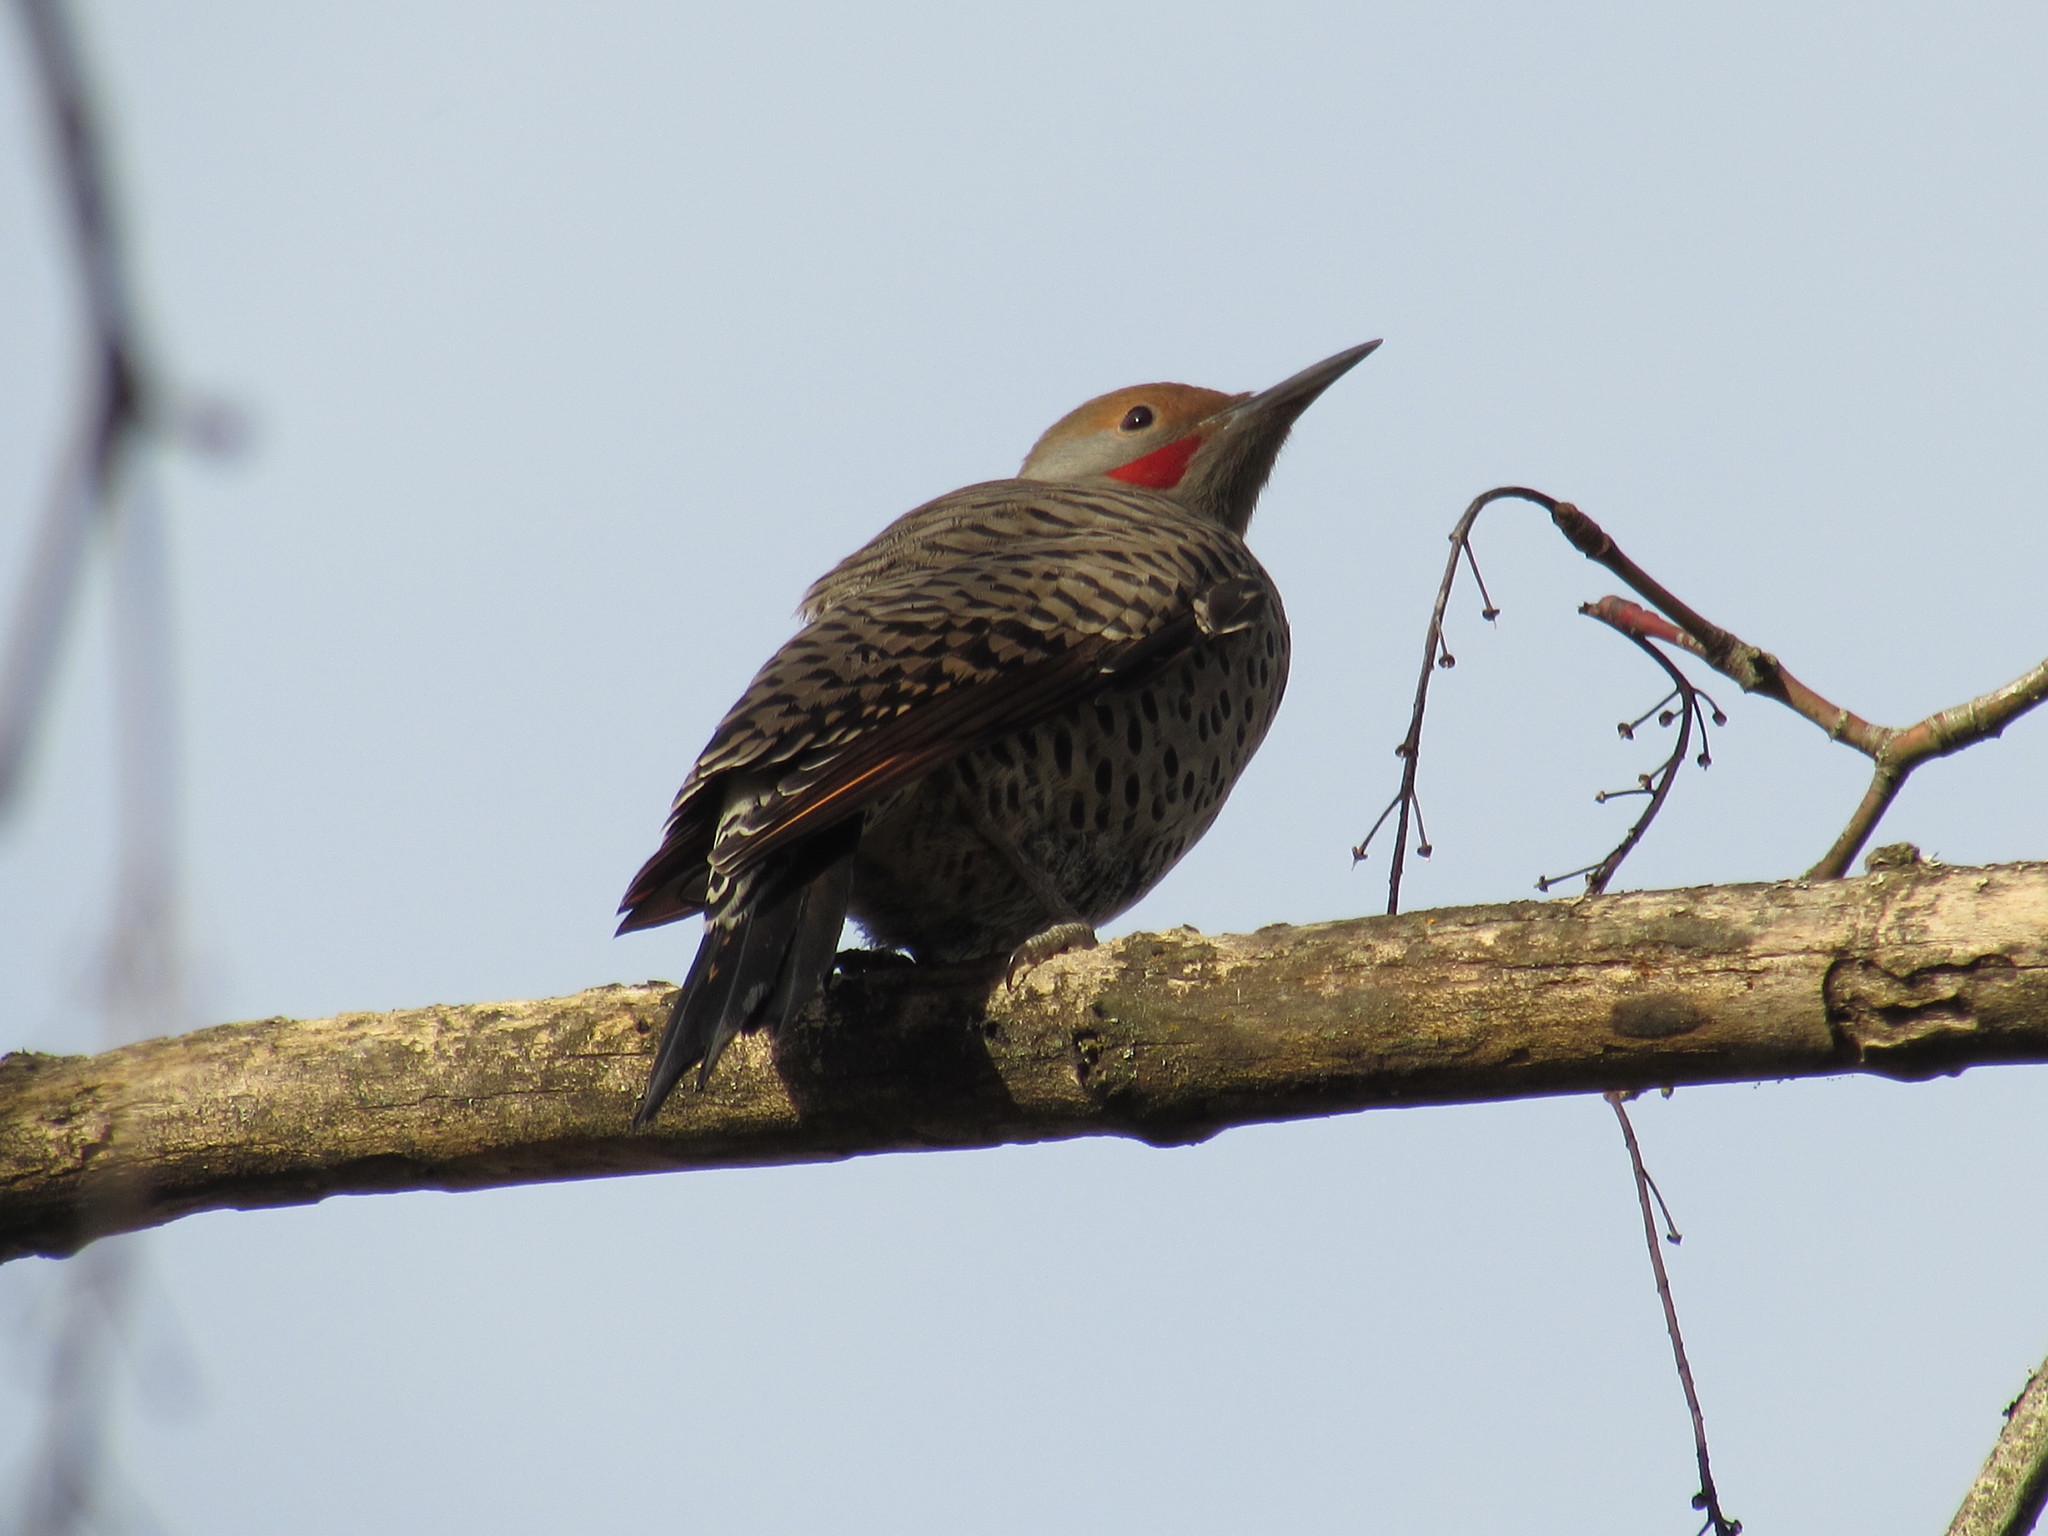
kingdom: Animalia
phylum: Chordata
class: Aves
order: Piciformes
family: Picidae
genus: Colaptes
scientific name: Colaptes auratus
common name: Northern flicker
